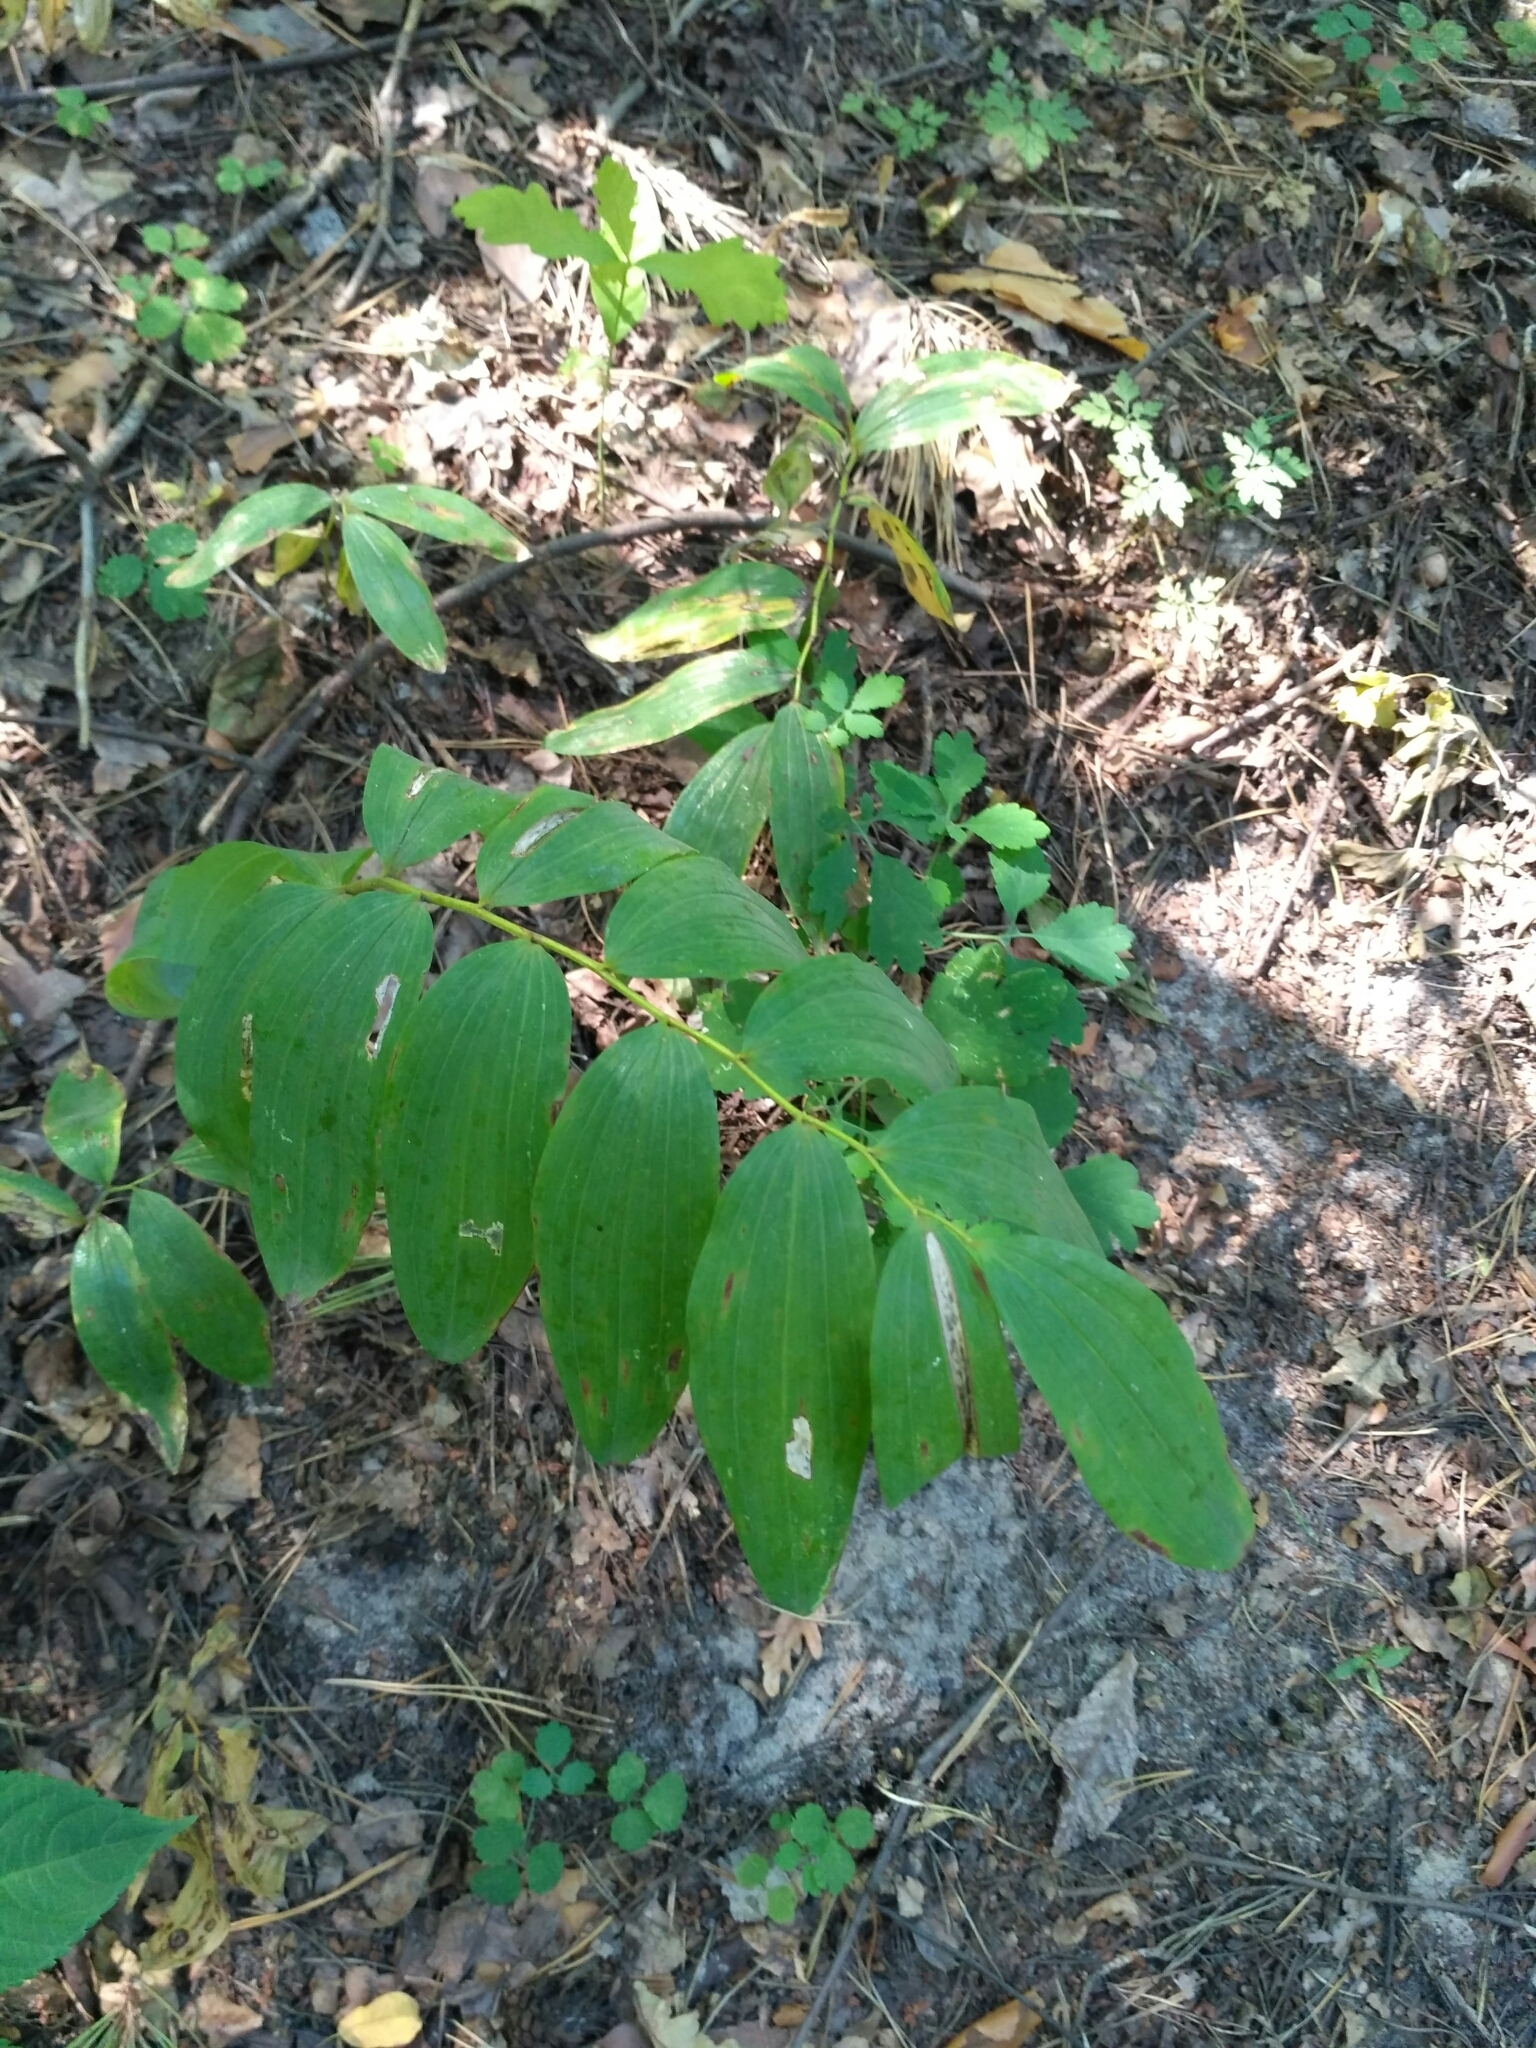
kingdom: Plantae
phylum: Tracheophyta
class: Liliopsida
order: Asparagales
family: Asparagaceae
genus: Polygonatum
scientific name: Polygonatum multiflorum
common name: Solomon's-seal
